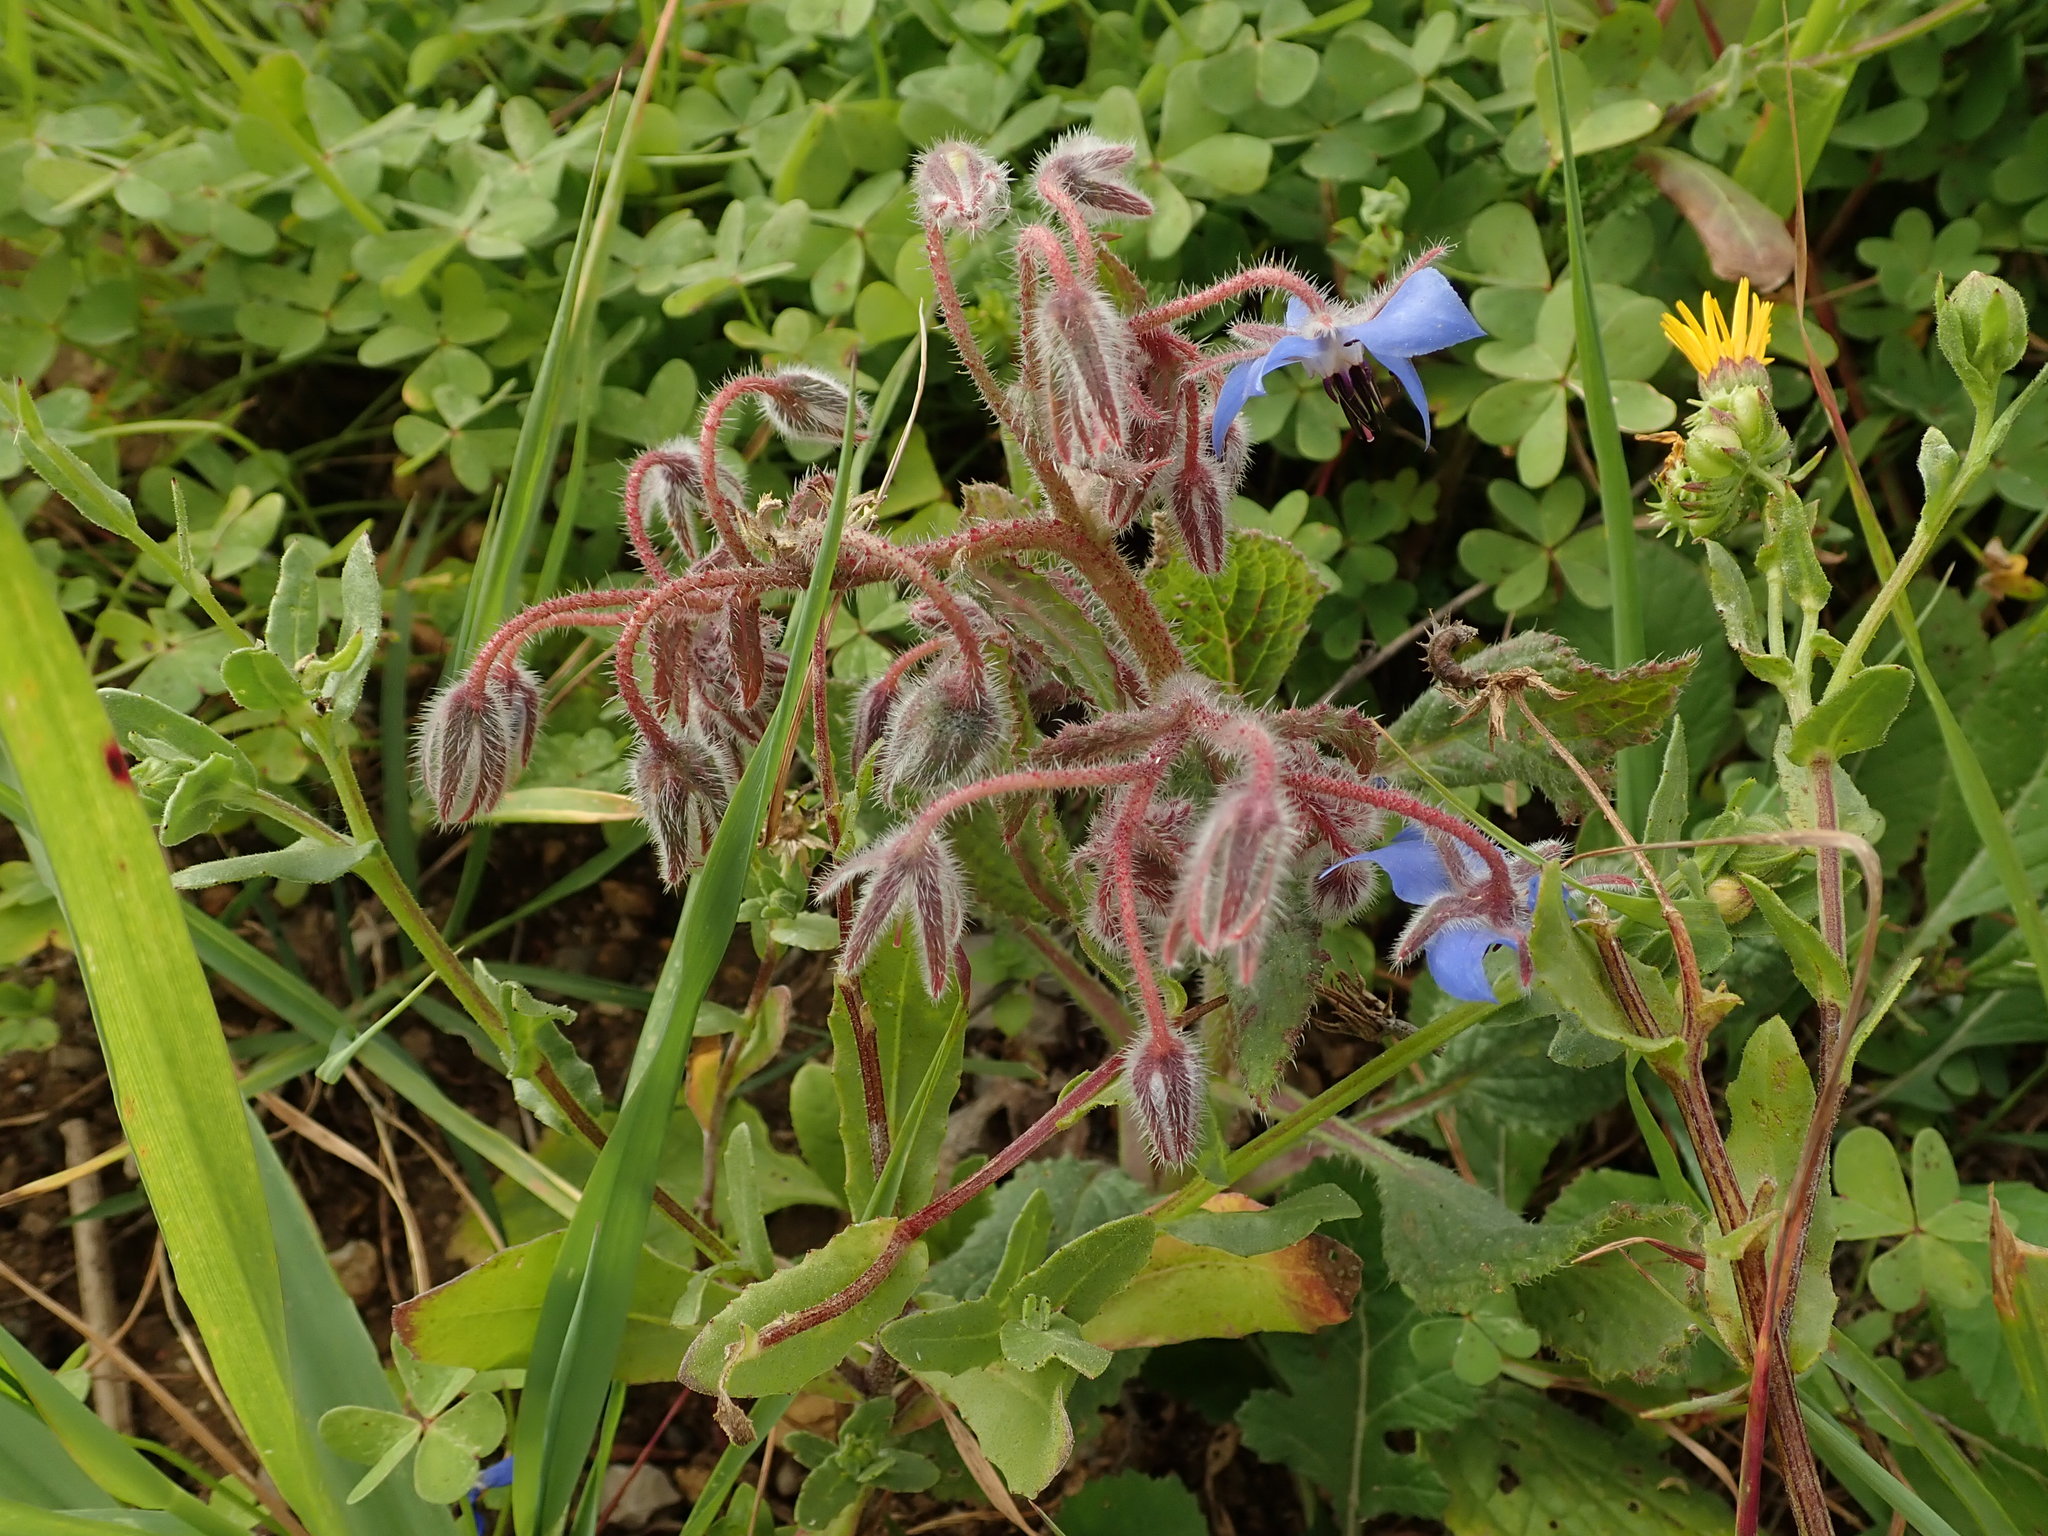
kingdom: Plantae
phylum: Tracheophyta
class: Magnoliopsida
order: Boraginales
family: Boraginaceae
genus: Borago
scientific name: Borago officinalis
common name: Borage
